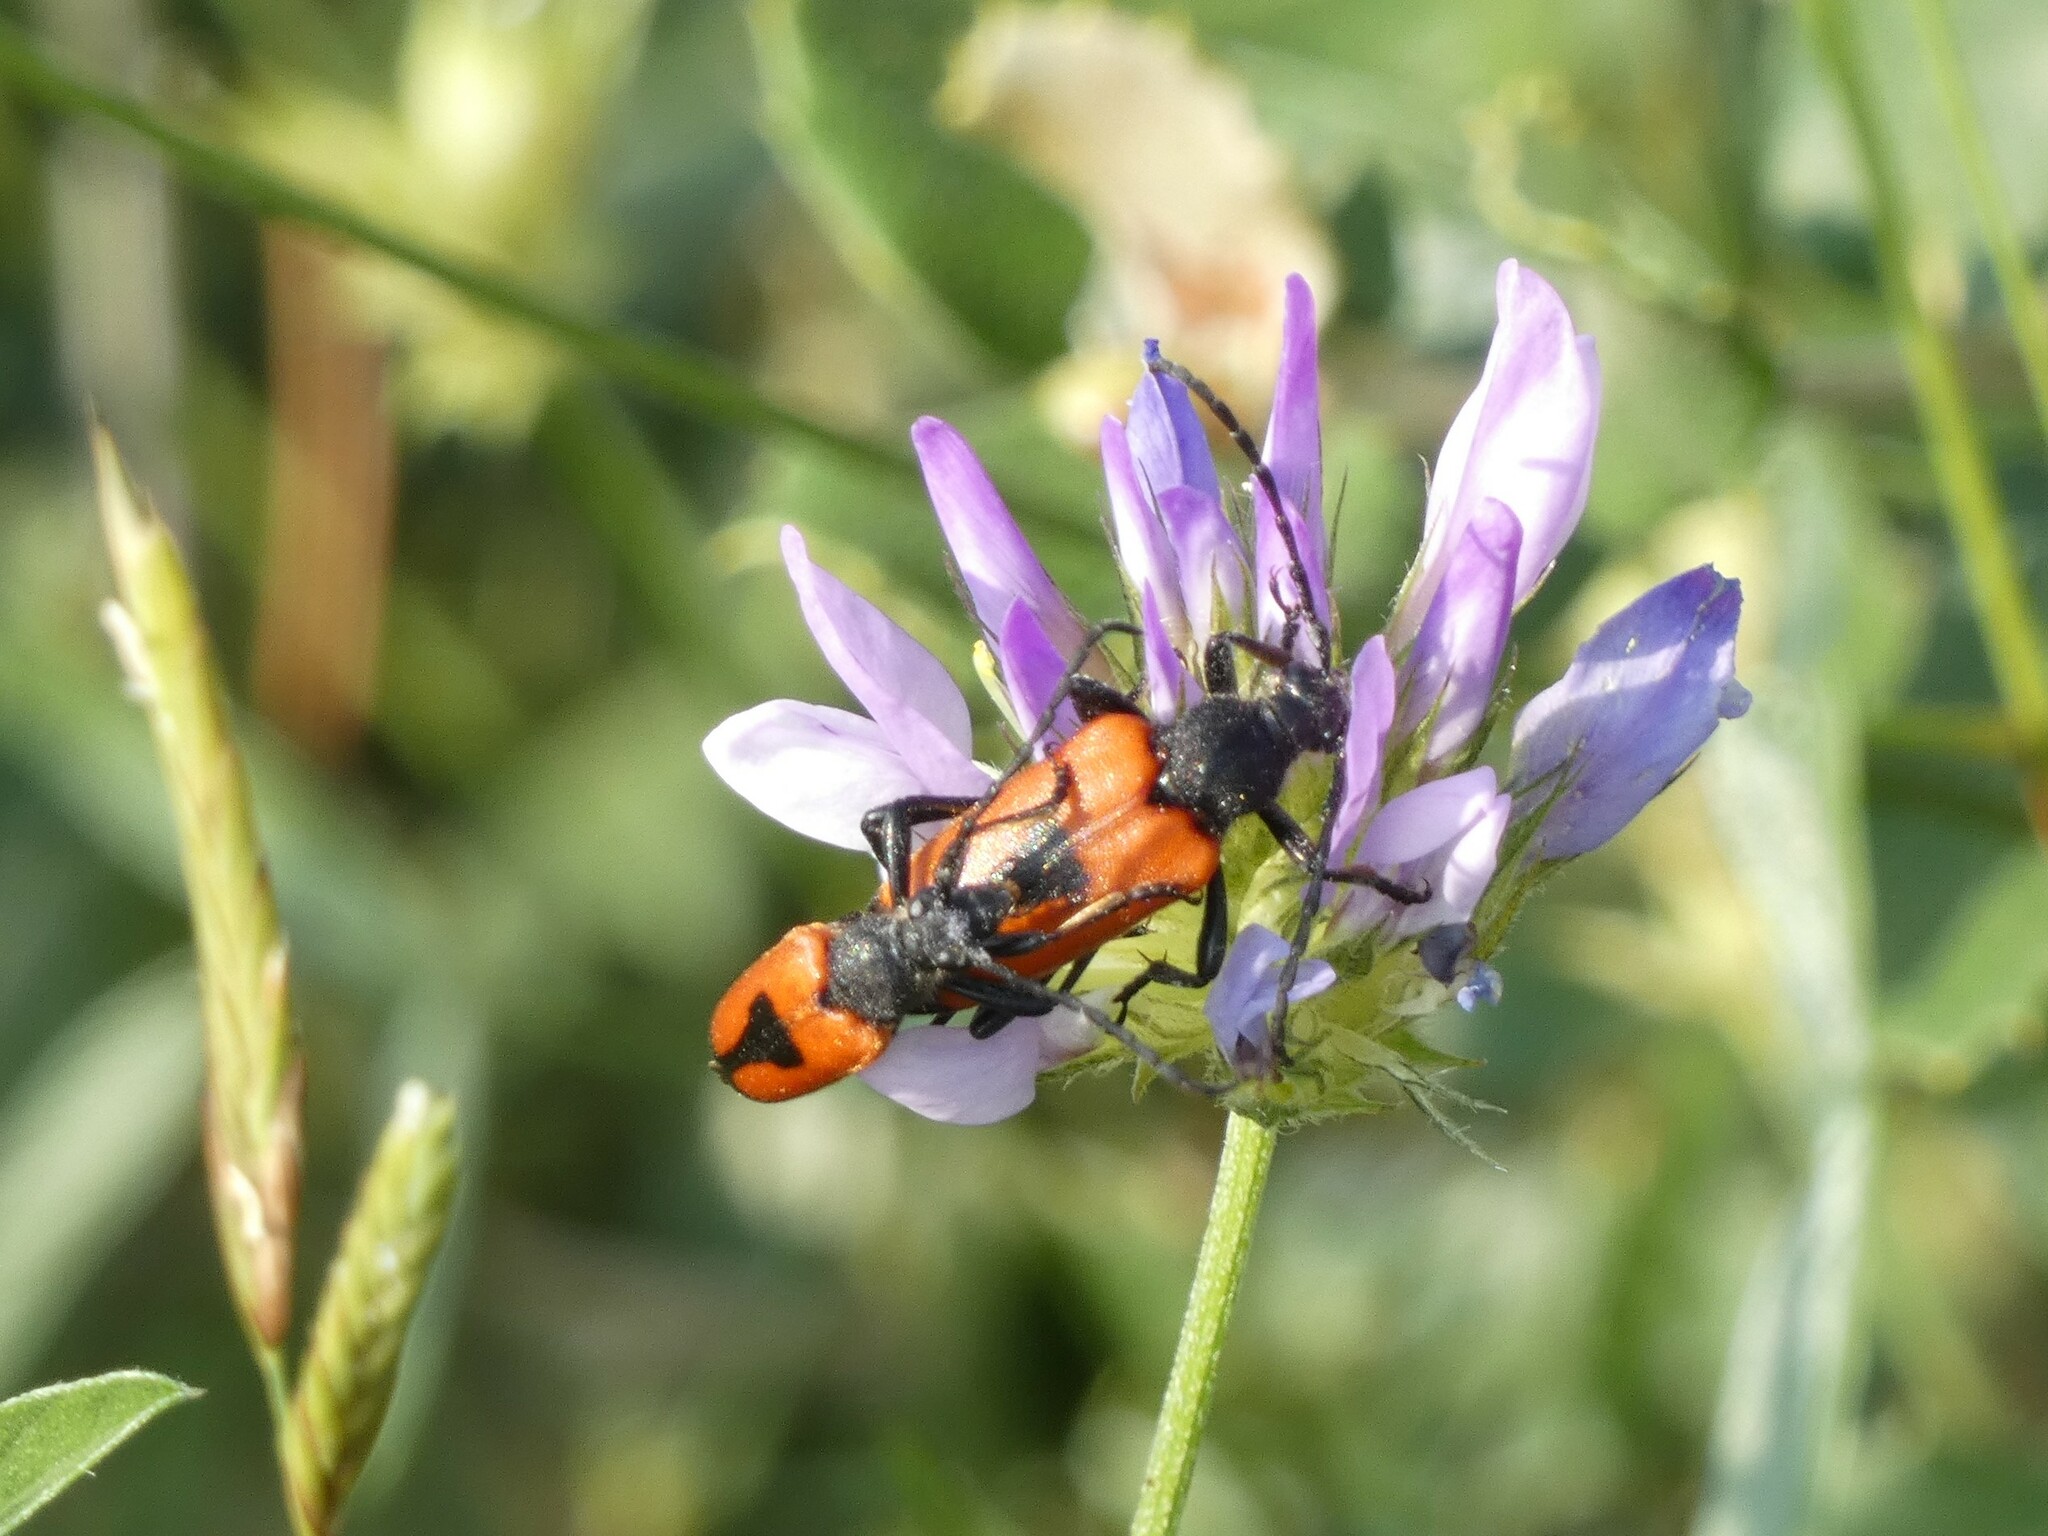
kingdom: Animalia
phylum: Arthropoda
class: Insecta
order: Coleoptera
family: Cerambycidae
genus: Stictoleptura
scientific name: Stictoleptura cordigera
